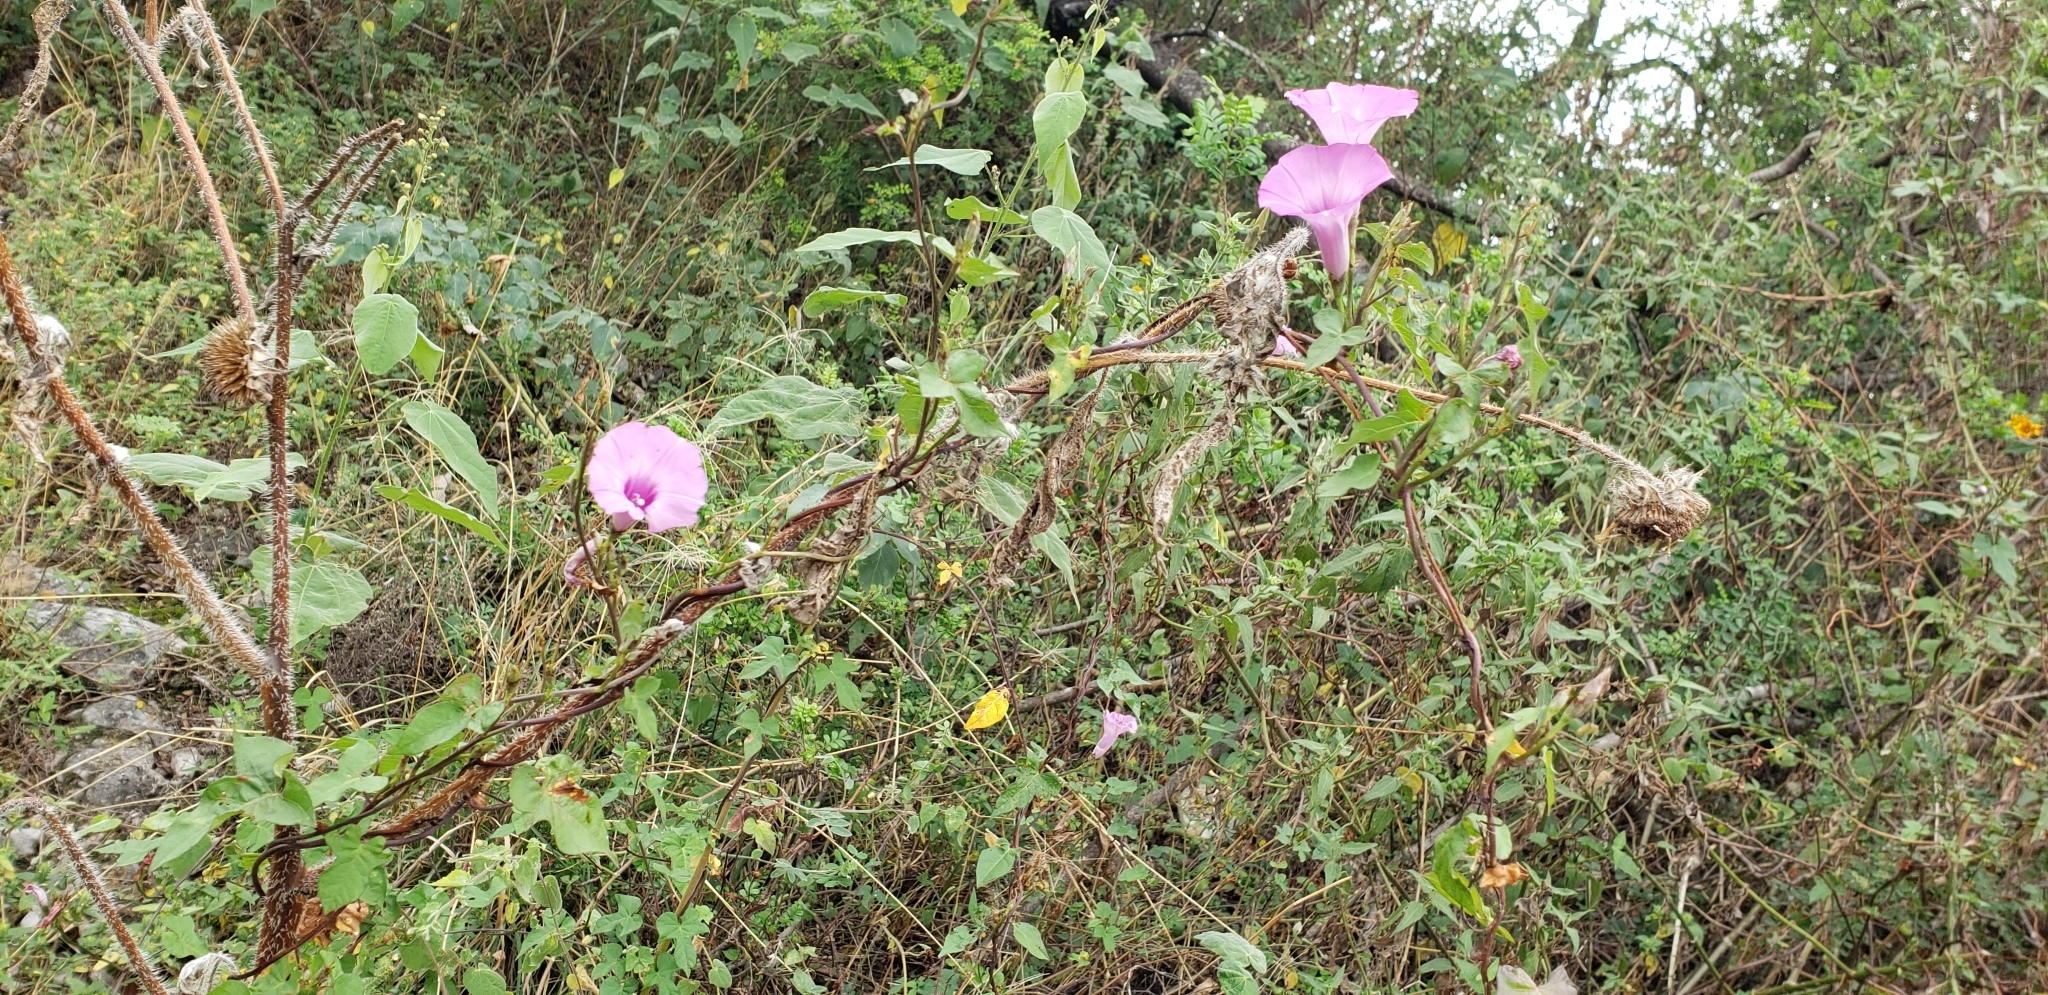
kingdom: Plantae
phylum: Tracheophyta
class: Magnoliopsida
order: Solanales
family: Convolvulaceae
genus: Ipomoea
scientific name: Ipomoea cordatotriloba
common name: Cotton morning glory
